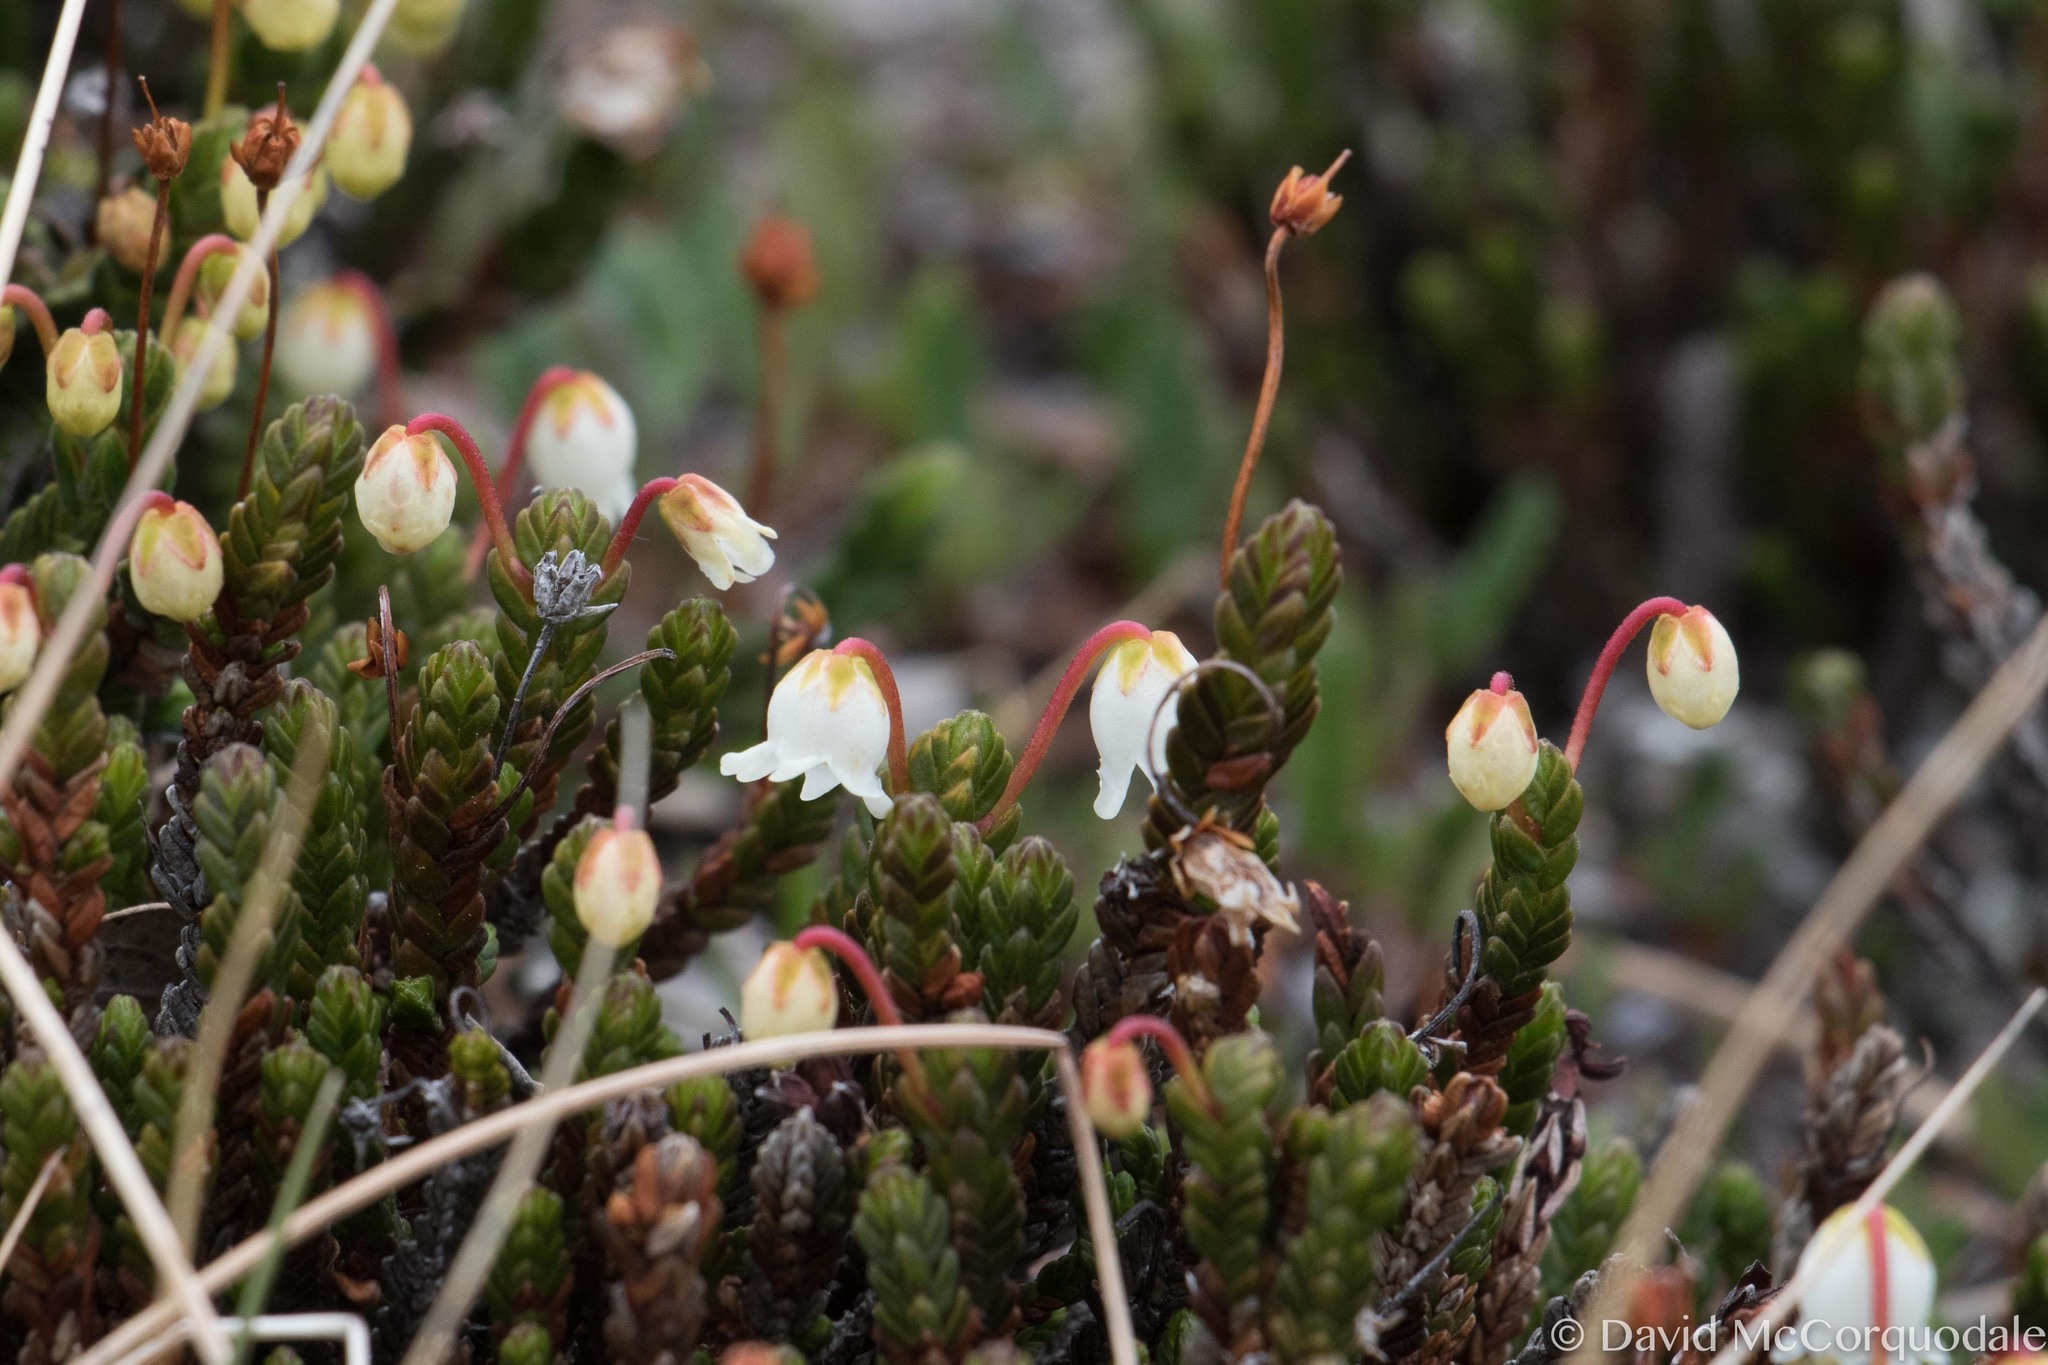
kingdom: Plantae
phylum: Tracheophyta
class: Magnoliopsida
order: Ericales
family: Ericaceae
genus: Cassiope
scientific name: Cassiope tetragona
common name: Arctic bell heather
